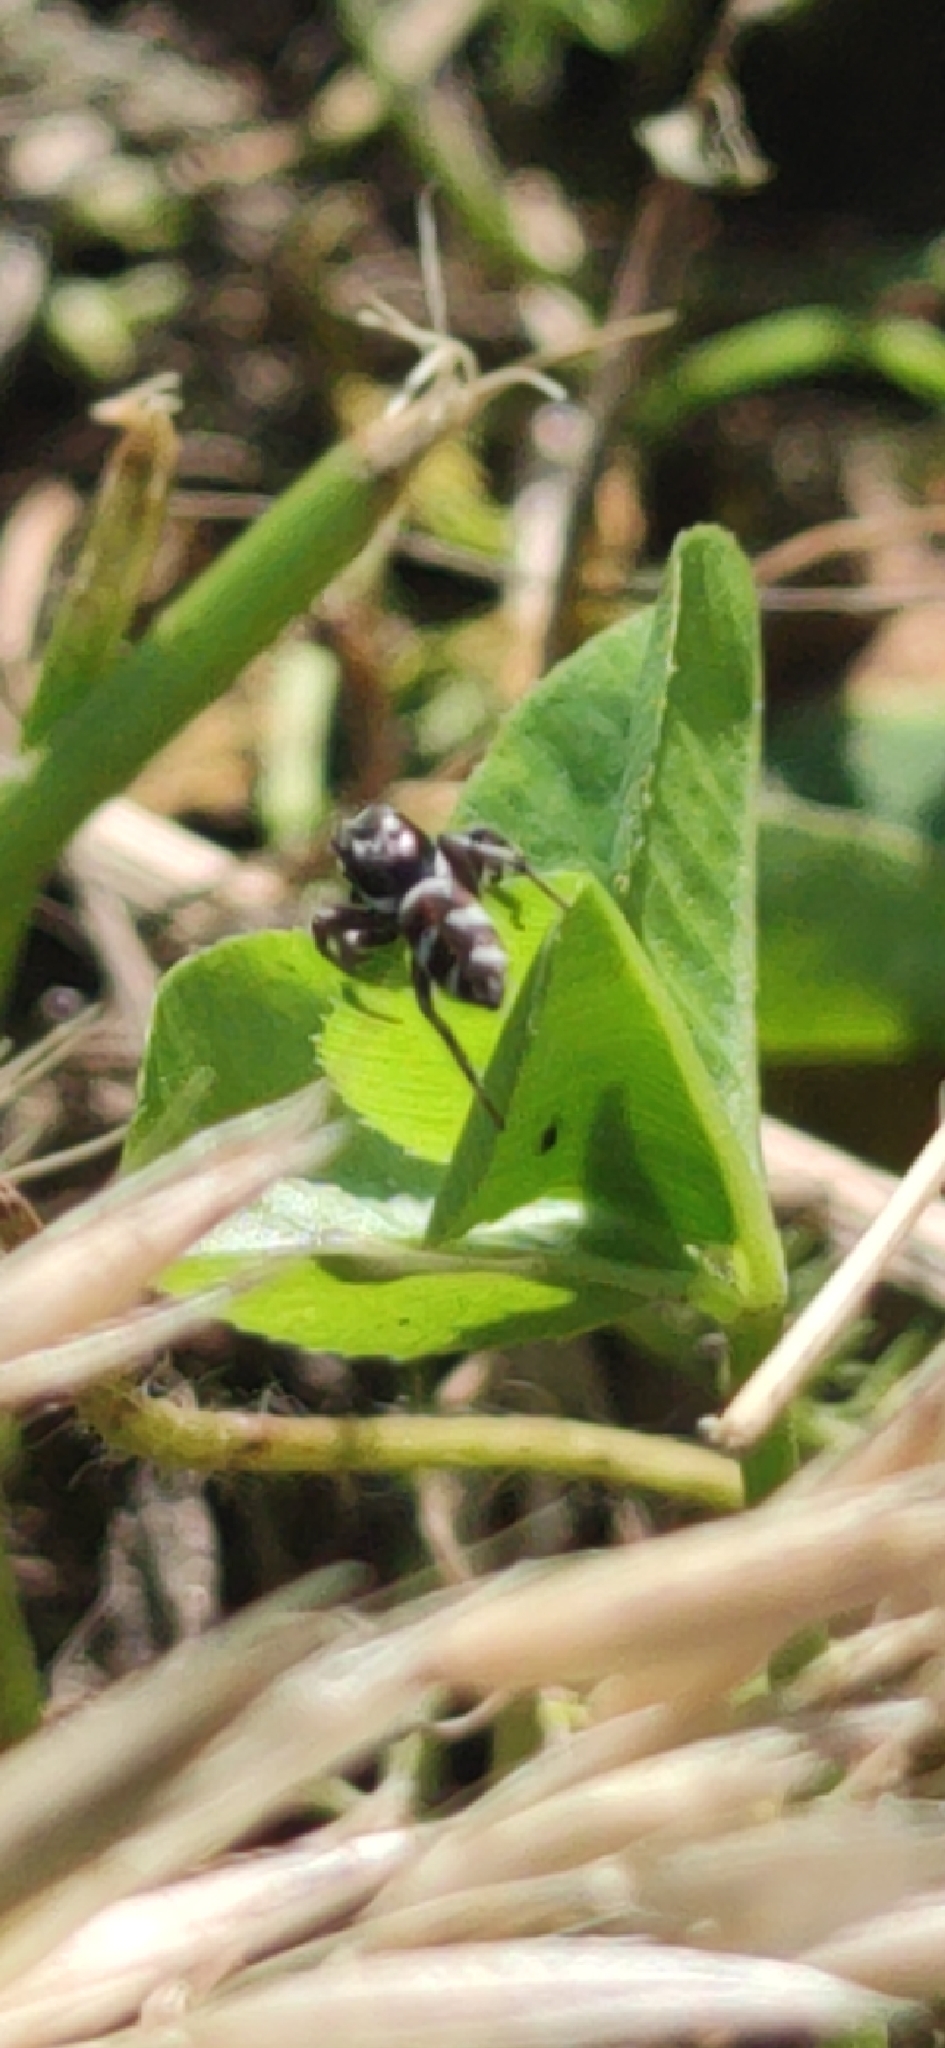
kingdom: Animalia
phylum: Arthropoda
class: Arachnida
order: Araneae
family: Salticidae
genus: Salticus
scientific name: Salticus scenicus
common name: Zebra jumper
